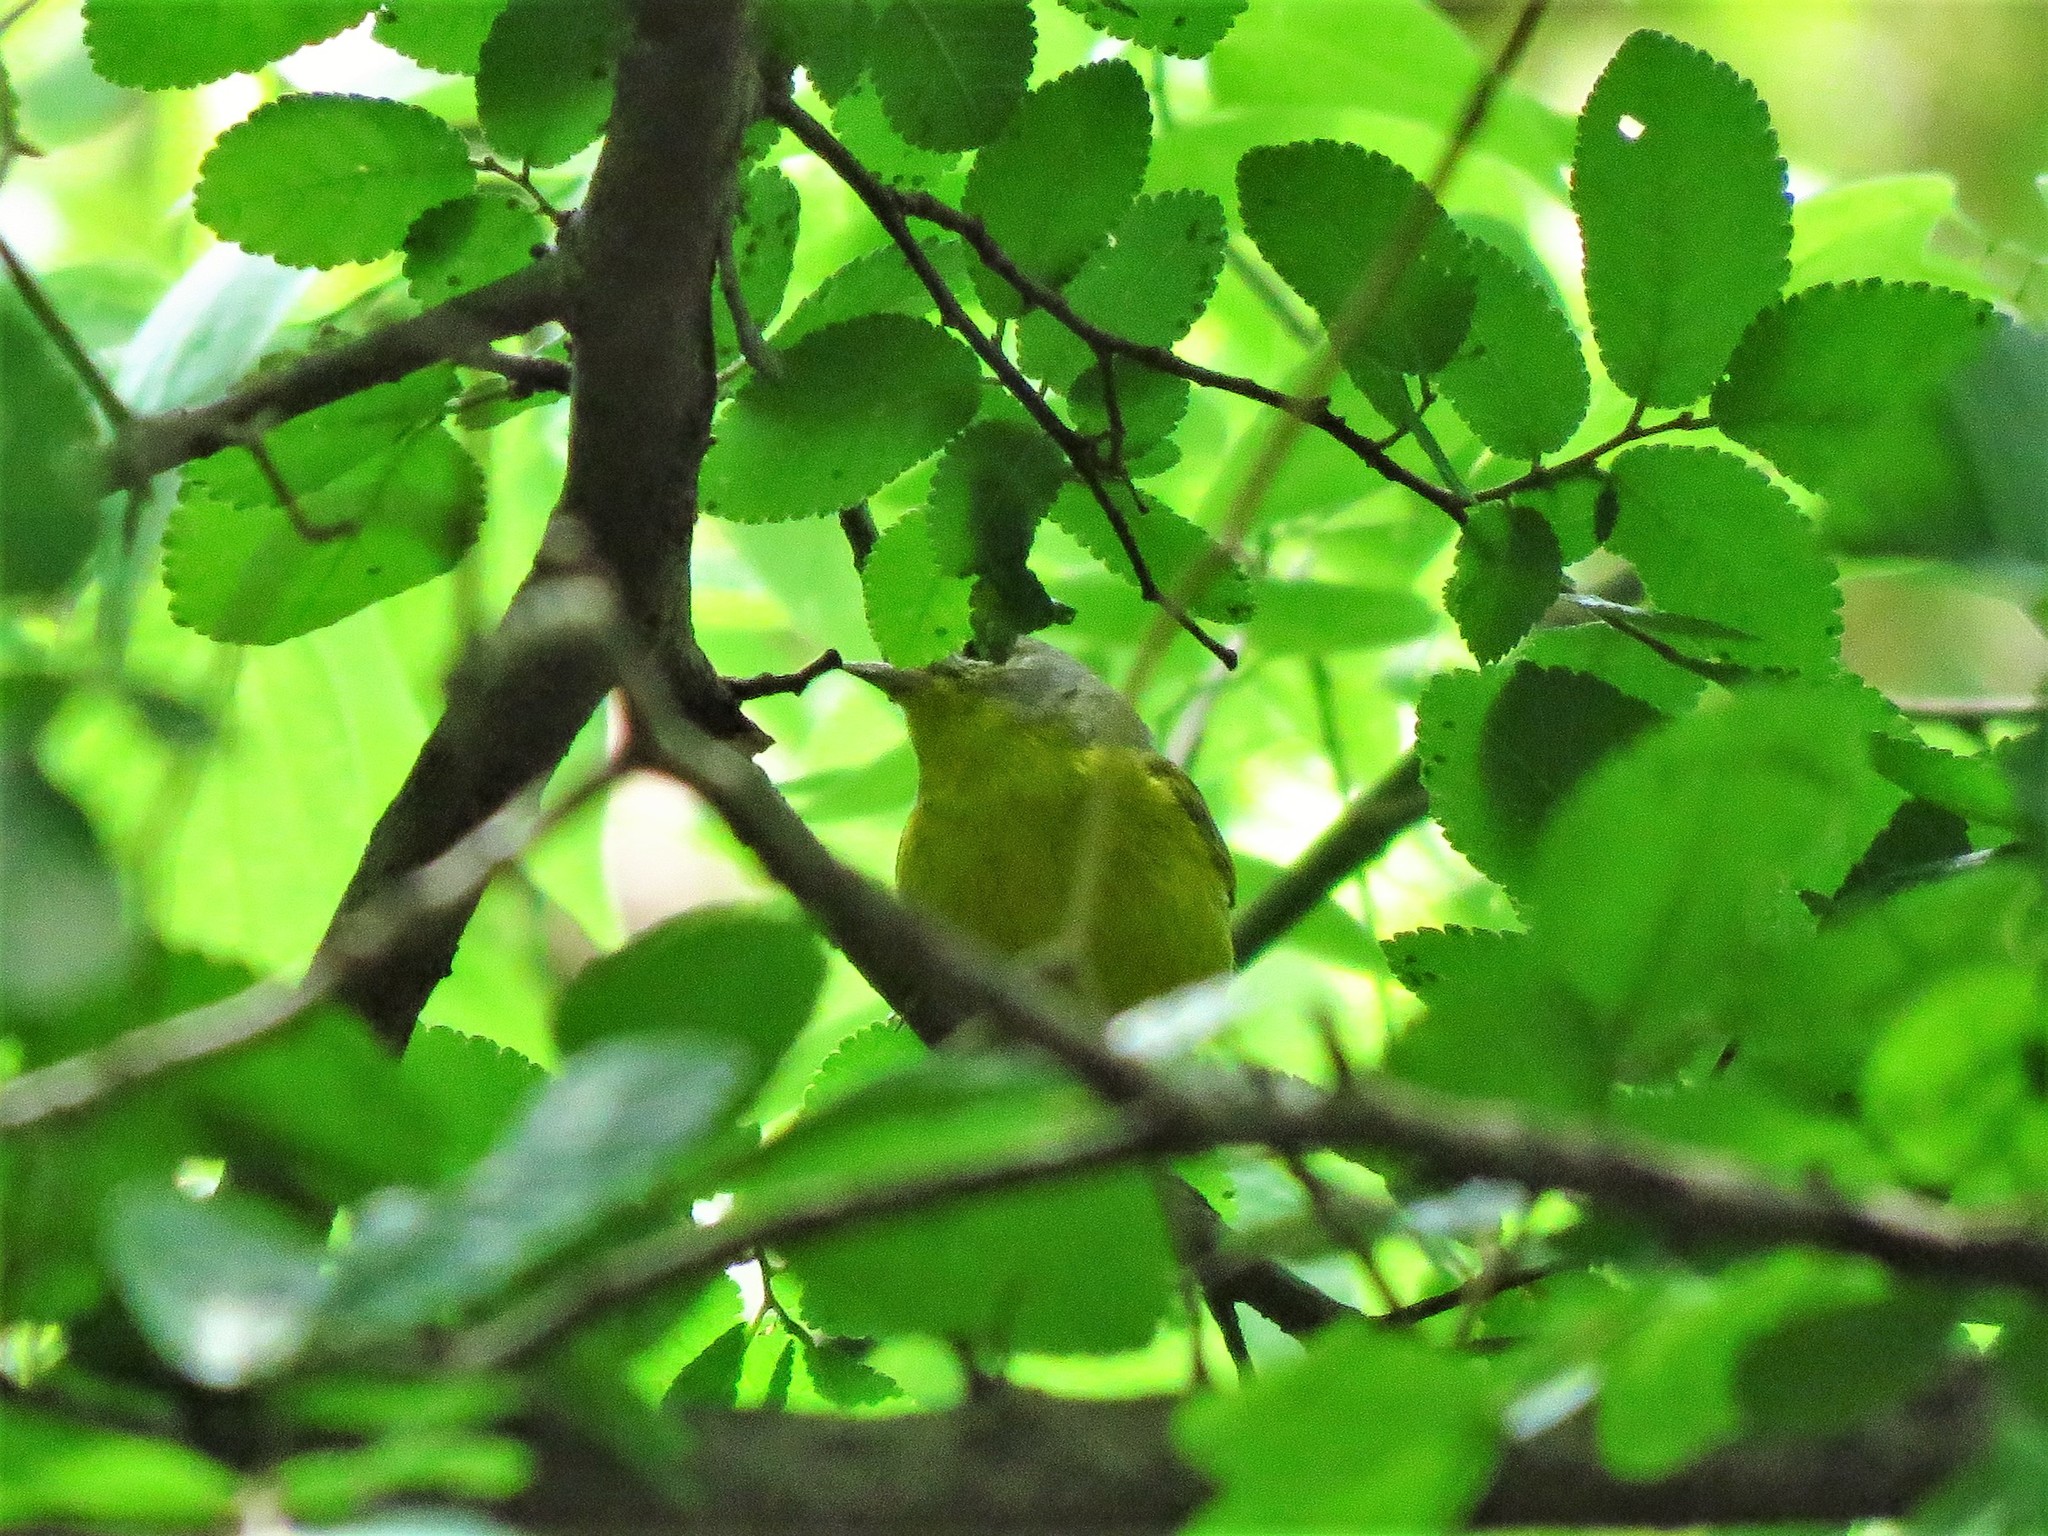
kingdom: Animalia
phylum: Chordata
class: Aves
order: Passeriformes
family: Parulidae
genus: Leiothlypis
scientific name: Leiothlypis ruficapilla
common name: Nashville warbler
